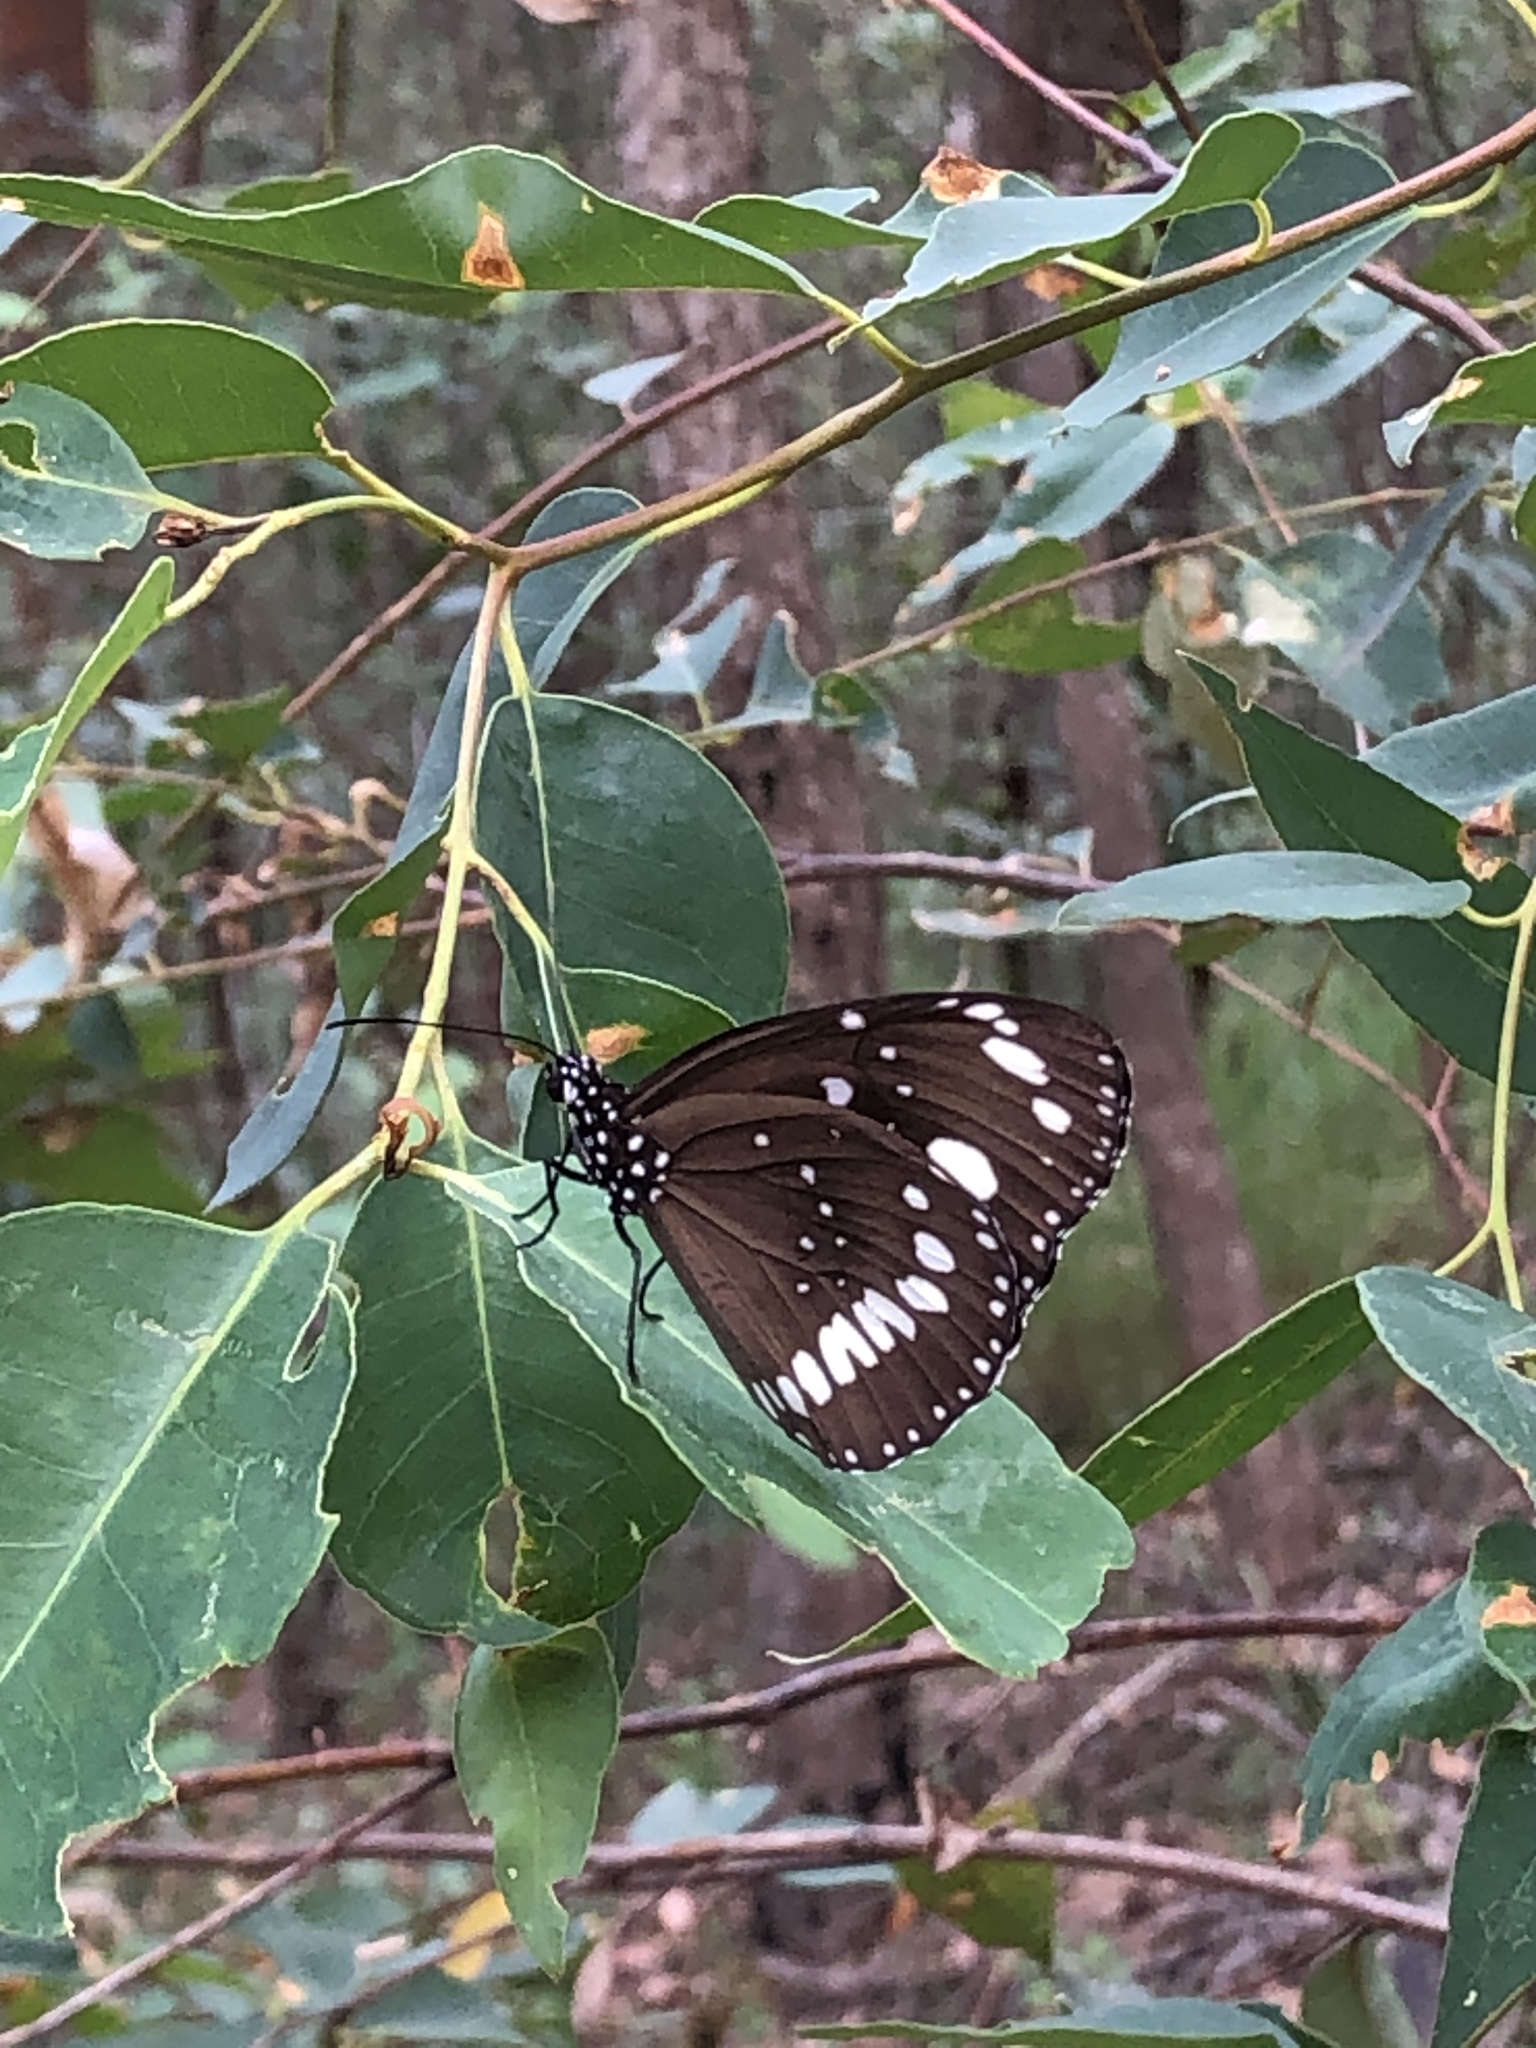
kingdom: Animalia
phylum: Arthropoda
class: Insecta
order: Lepidoptera
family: Nymphalidae
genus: Euploea
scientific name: Euploea core
